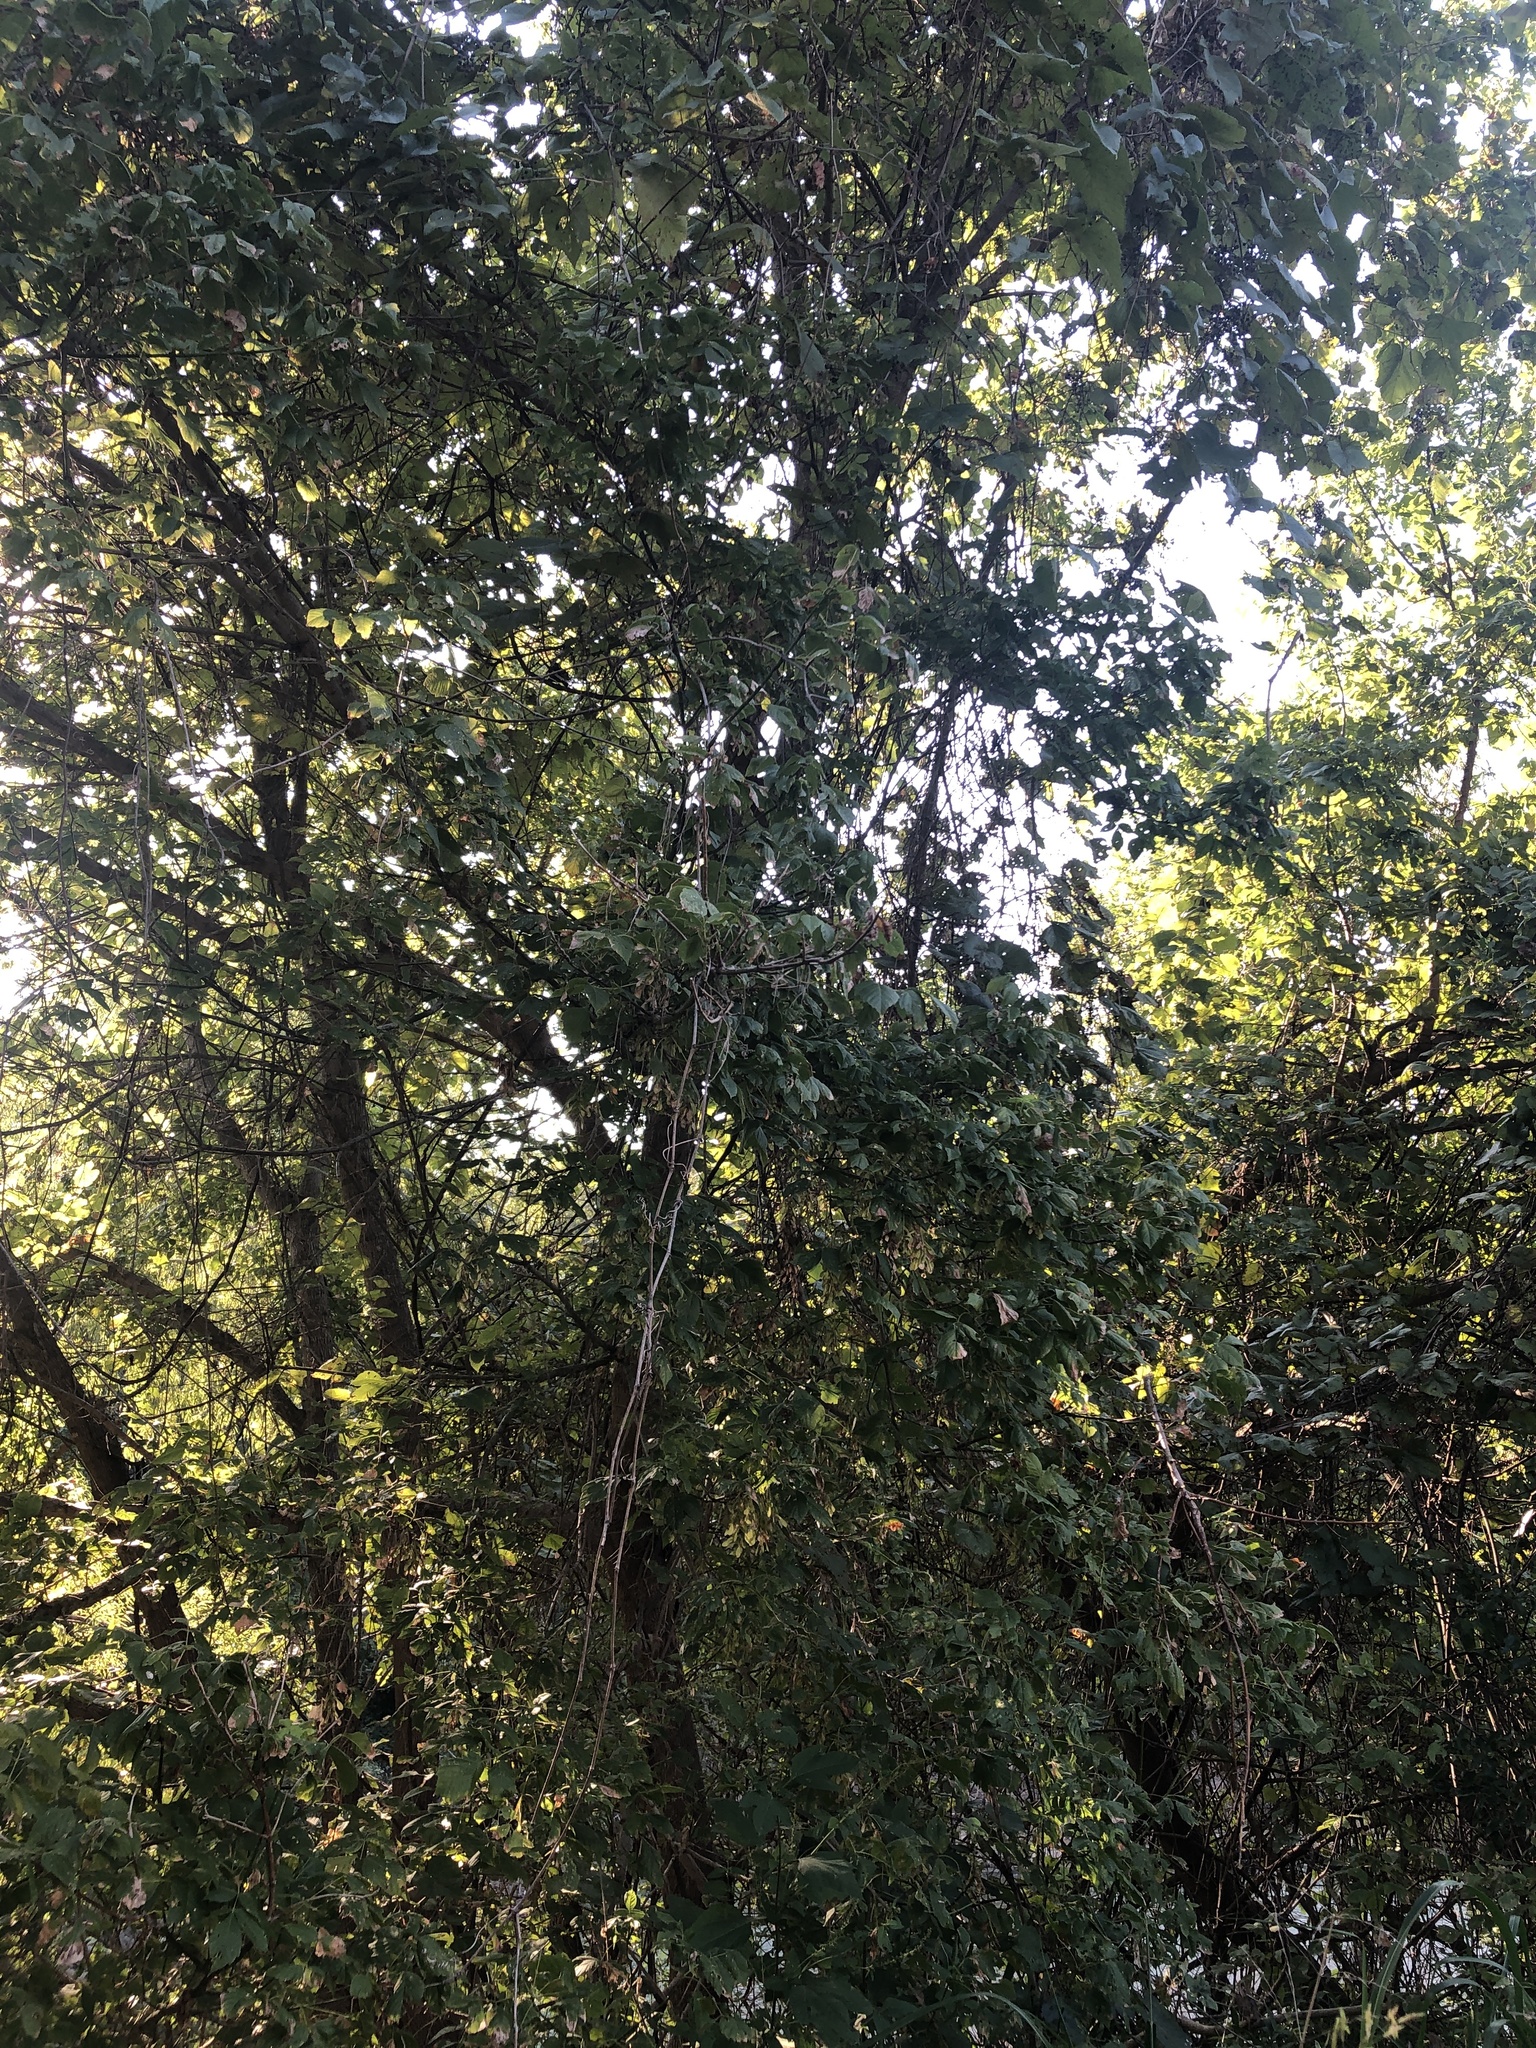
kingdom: Plantae
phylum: Tracheophyta
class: Magnoliopsida
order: Sapindales
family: Sapindaceae
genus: Acer
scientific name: Acer negundo
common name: Ashleaf maple
